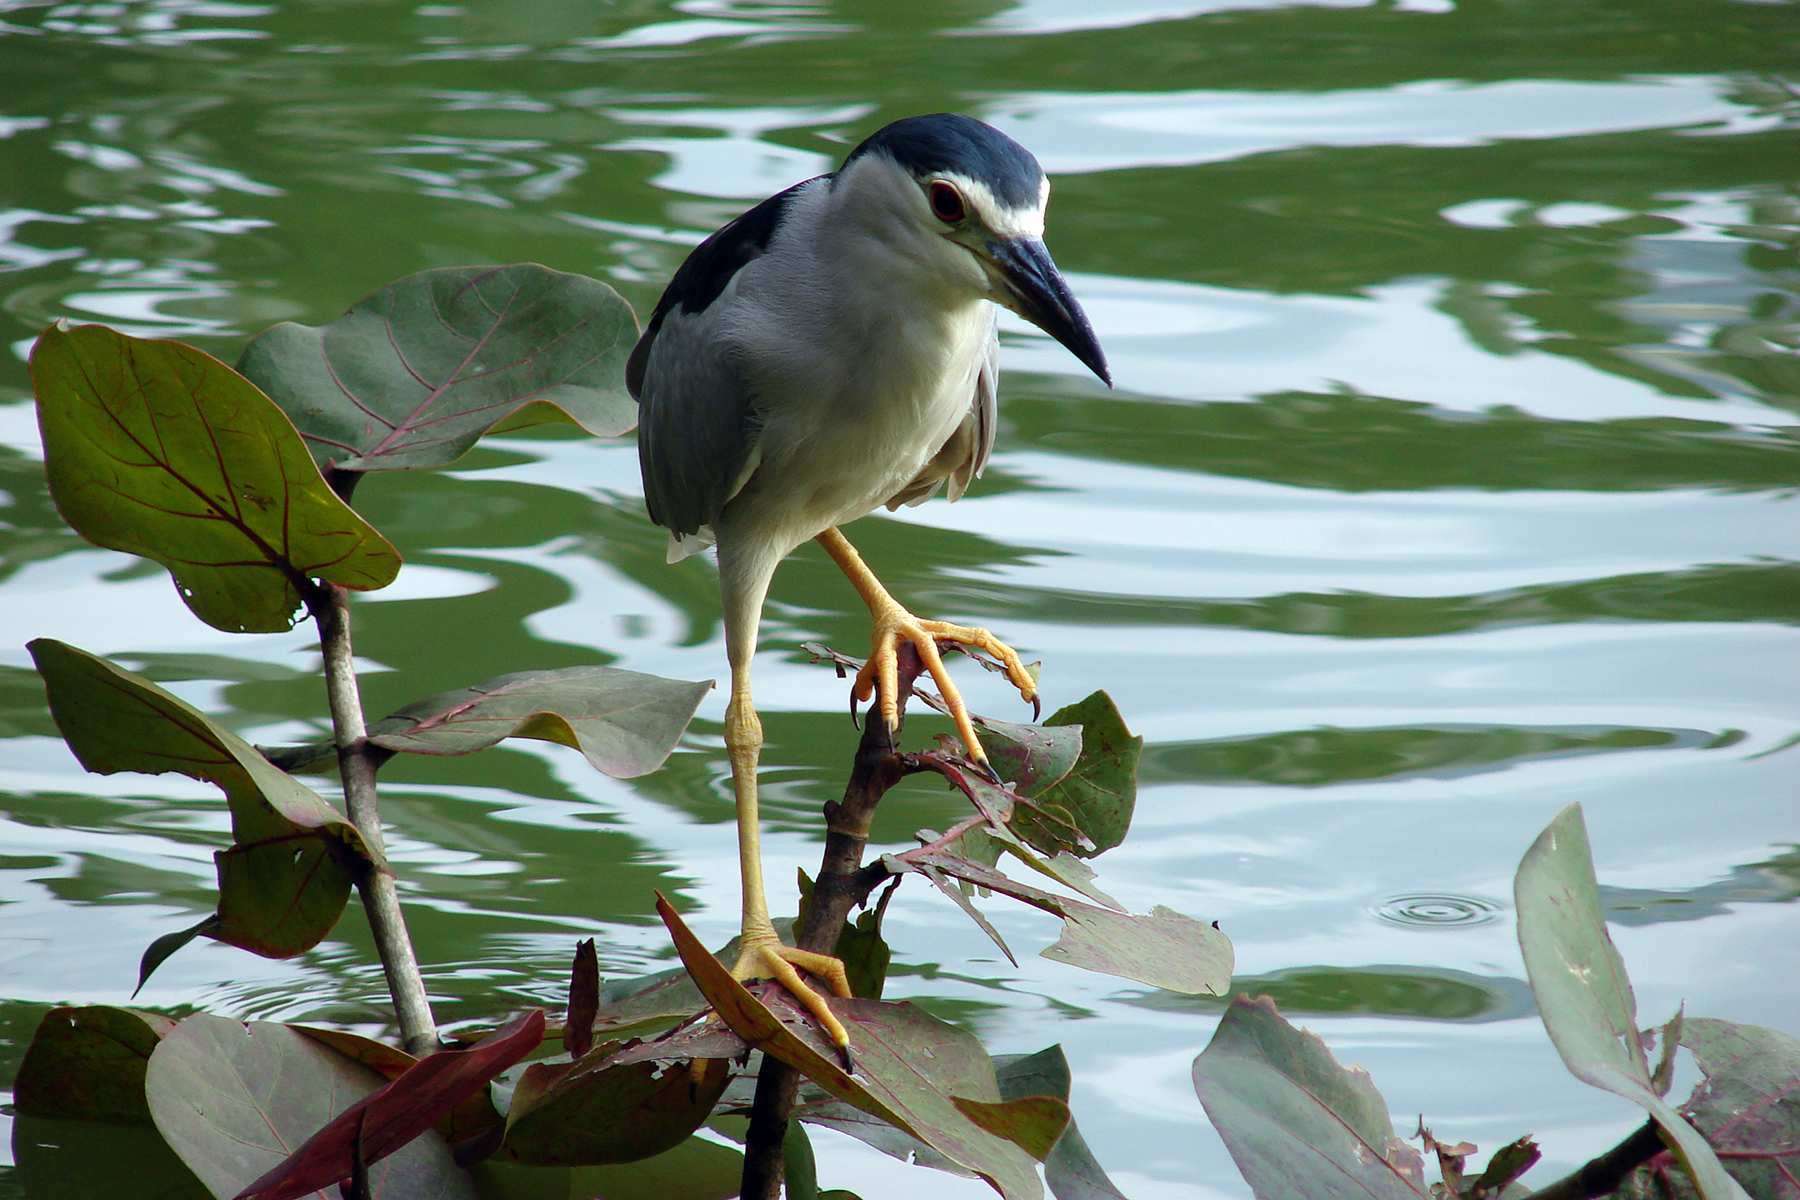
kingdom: Animalia
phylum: Chordata
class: Aves
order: Pelecaniformes
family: Ardeidae
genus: Nycticorax
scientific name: Nycticorax nycticorax
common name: Black-crowned night heron
